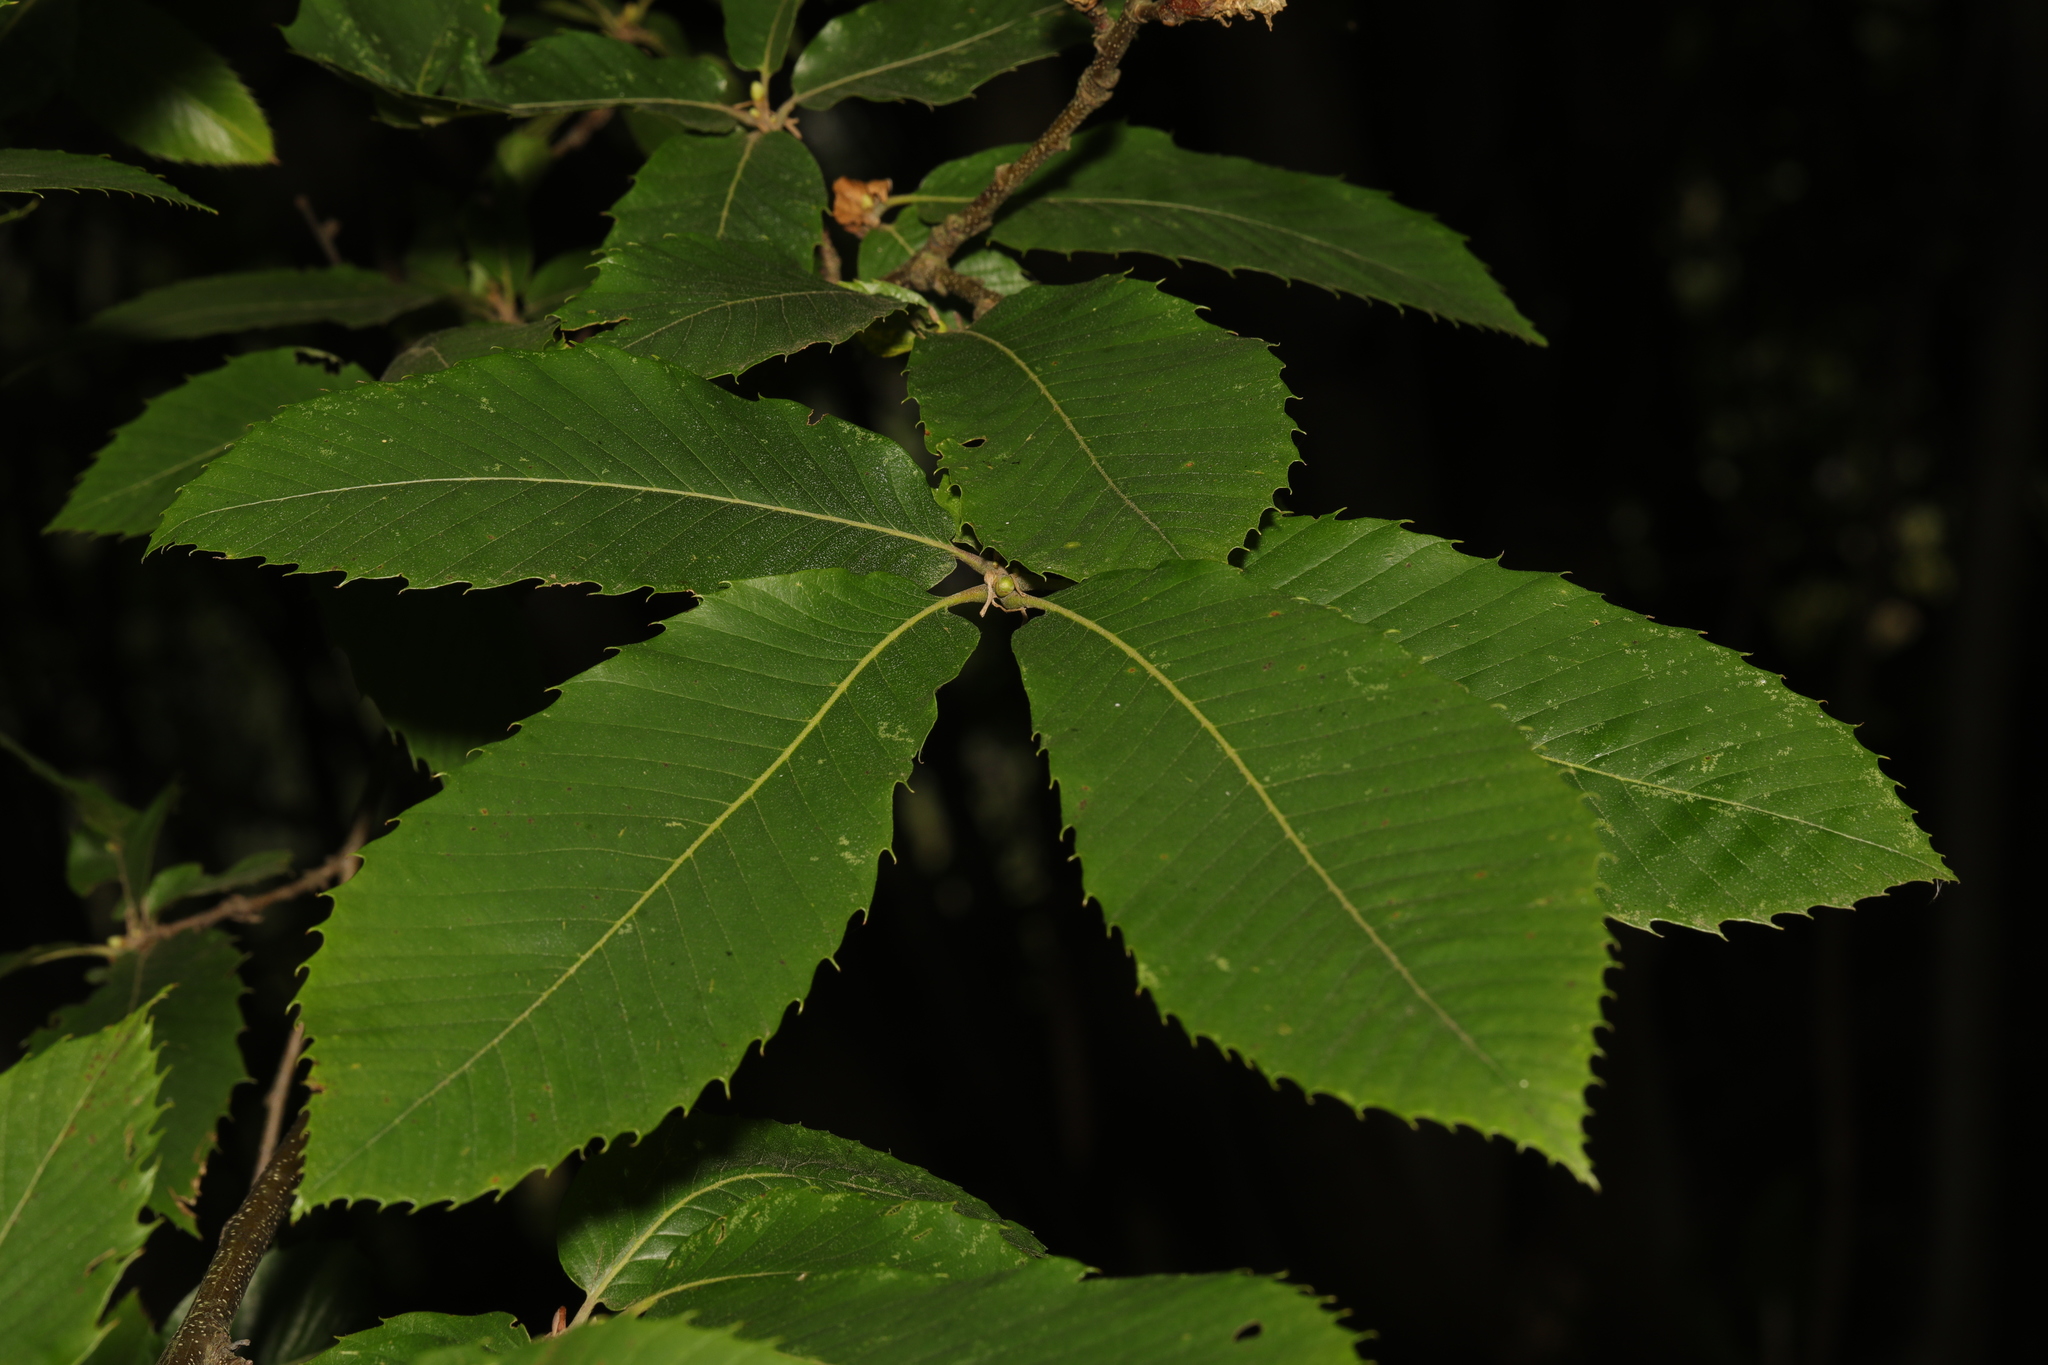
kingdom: Plantae
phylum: Tracheophyta
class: Magnoliopsida
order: Fagales
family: Fagaceae
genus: Castanea
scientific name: Castanea sativa
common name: Sweet chestnut
